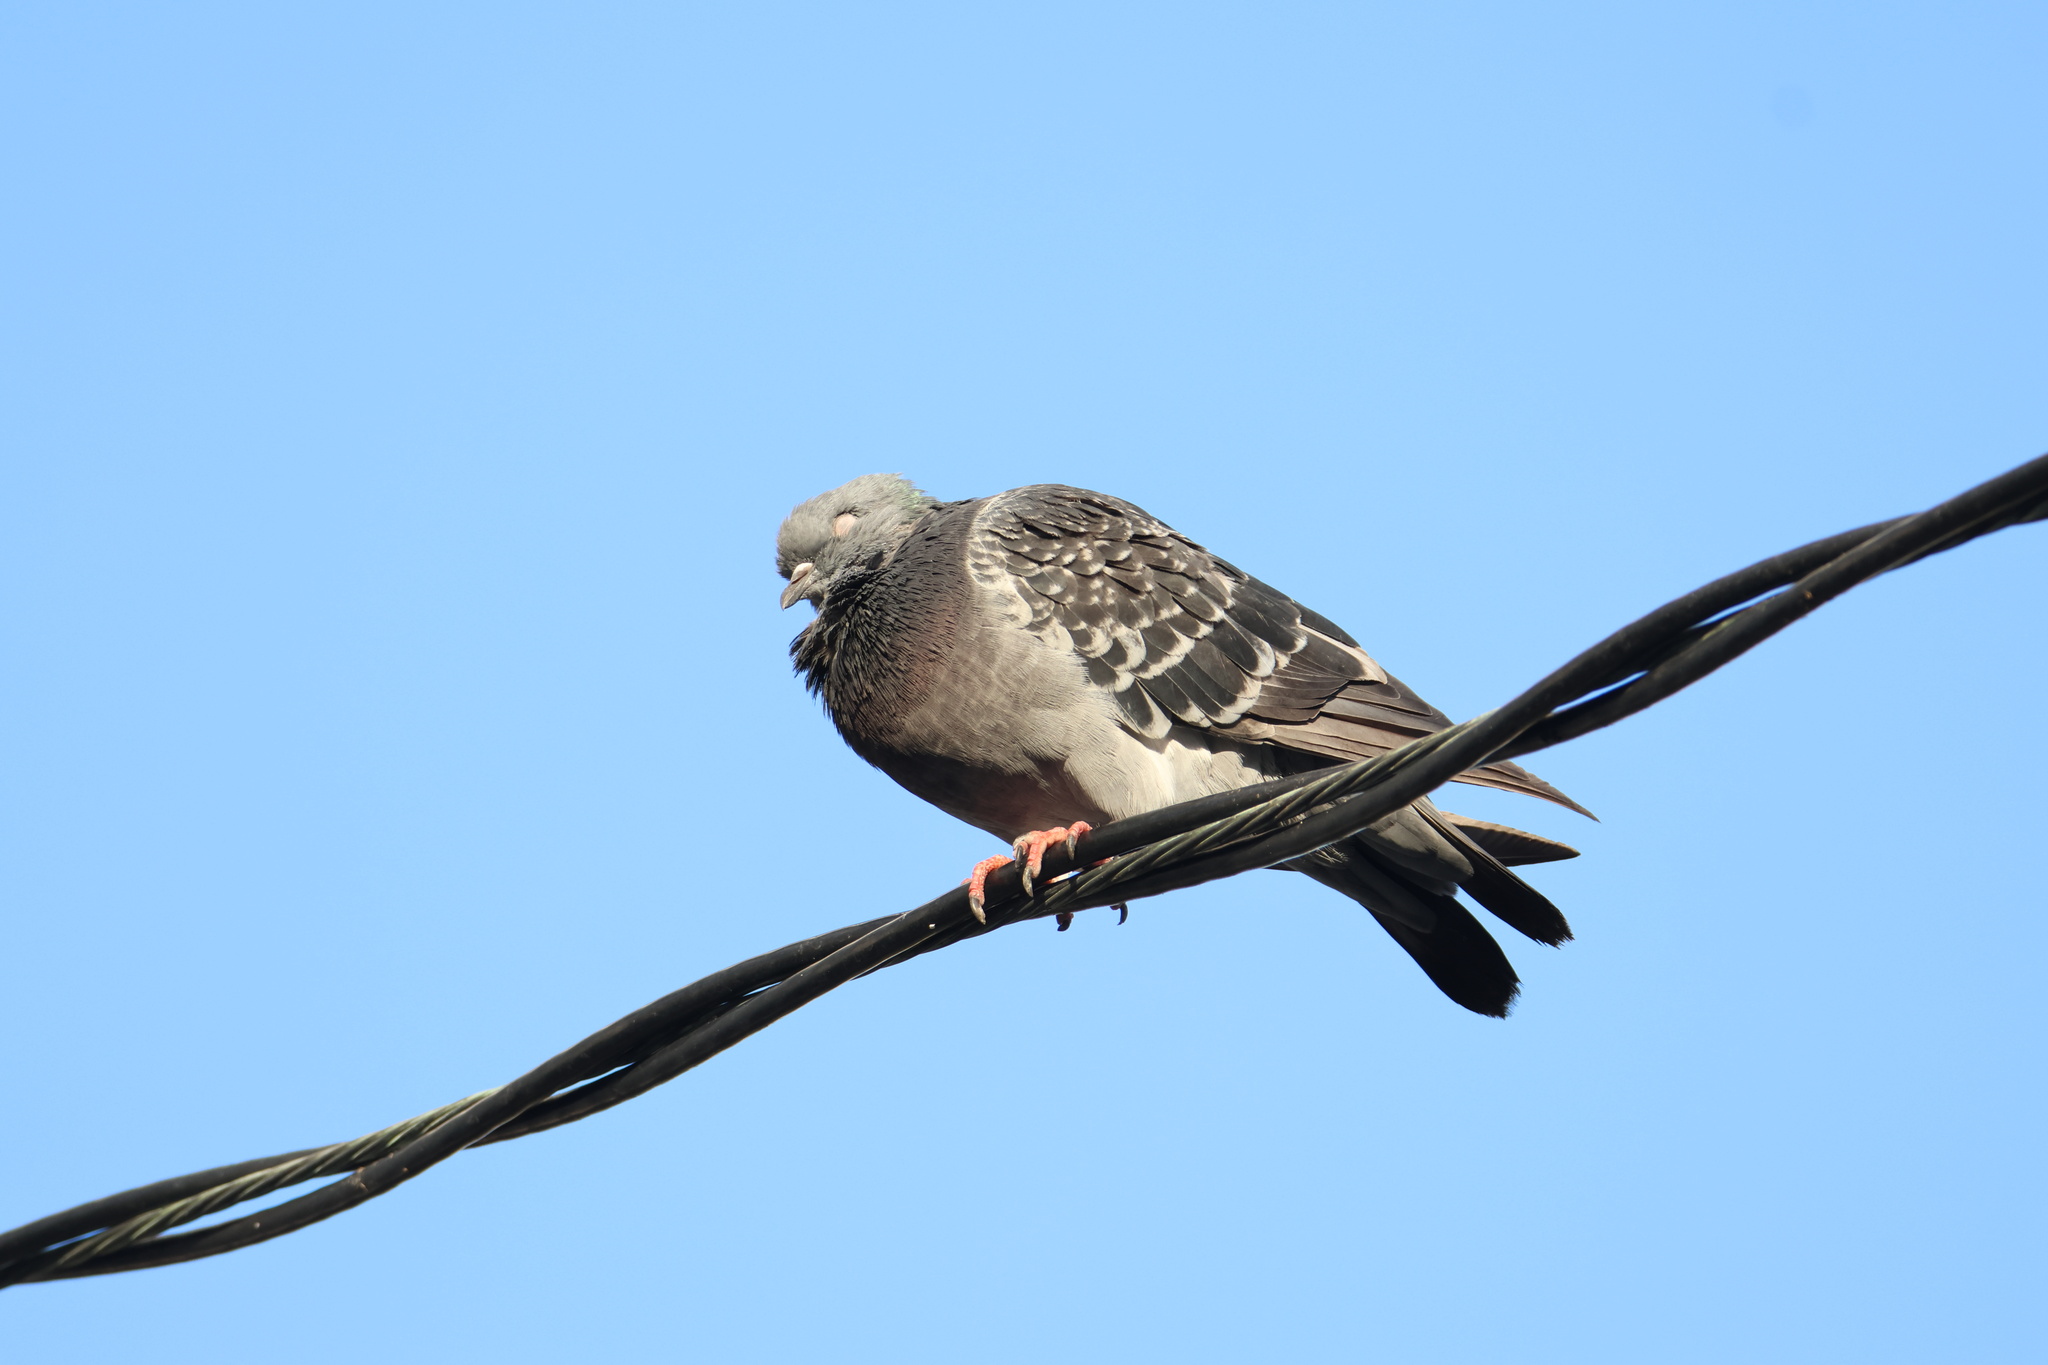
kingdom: Animalia
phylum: Chordata
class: Aves
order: Columbiformes
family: Columbidae
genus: Columba
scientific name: Columba livia
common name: Rock pigeon
